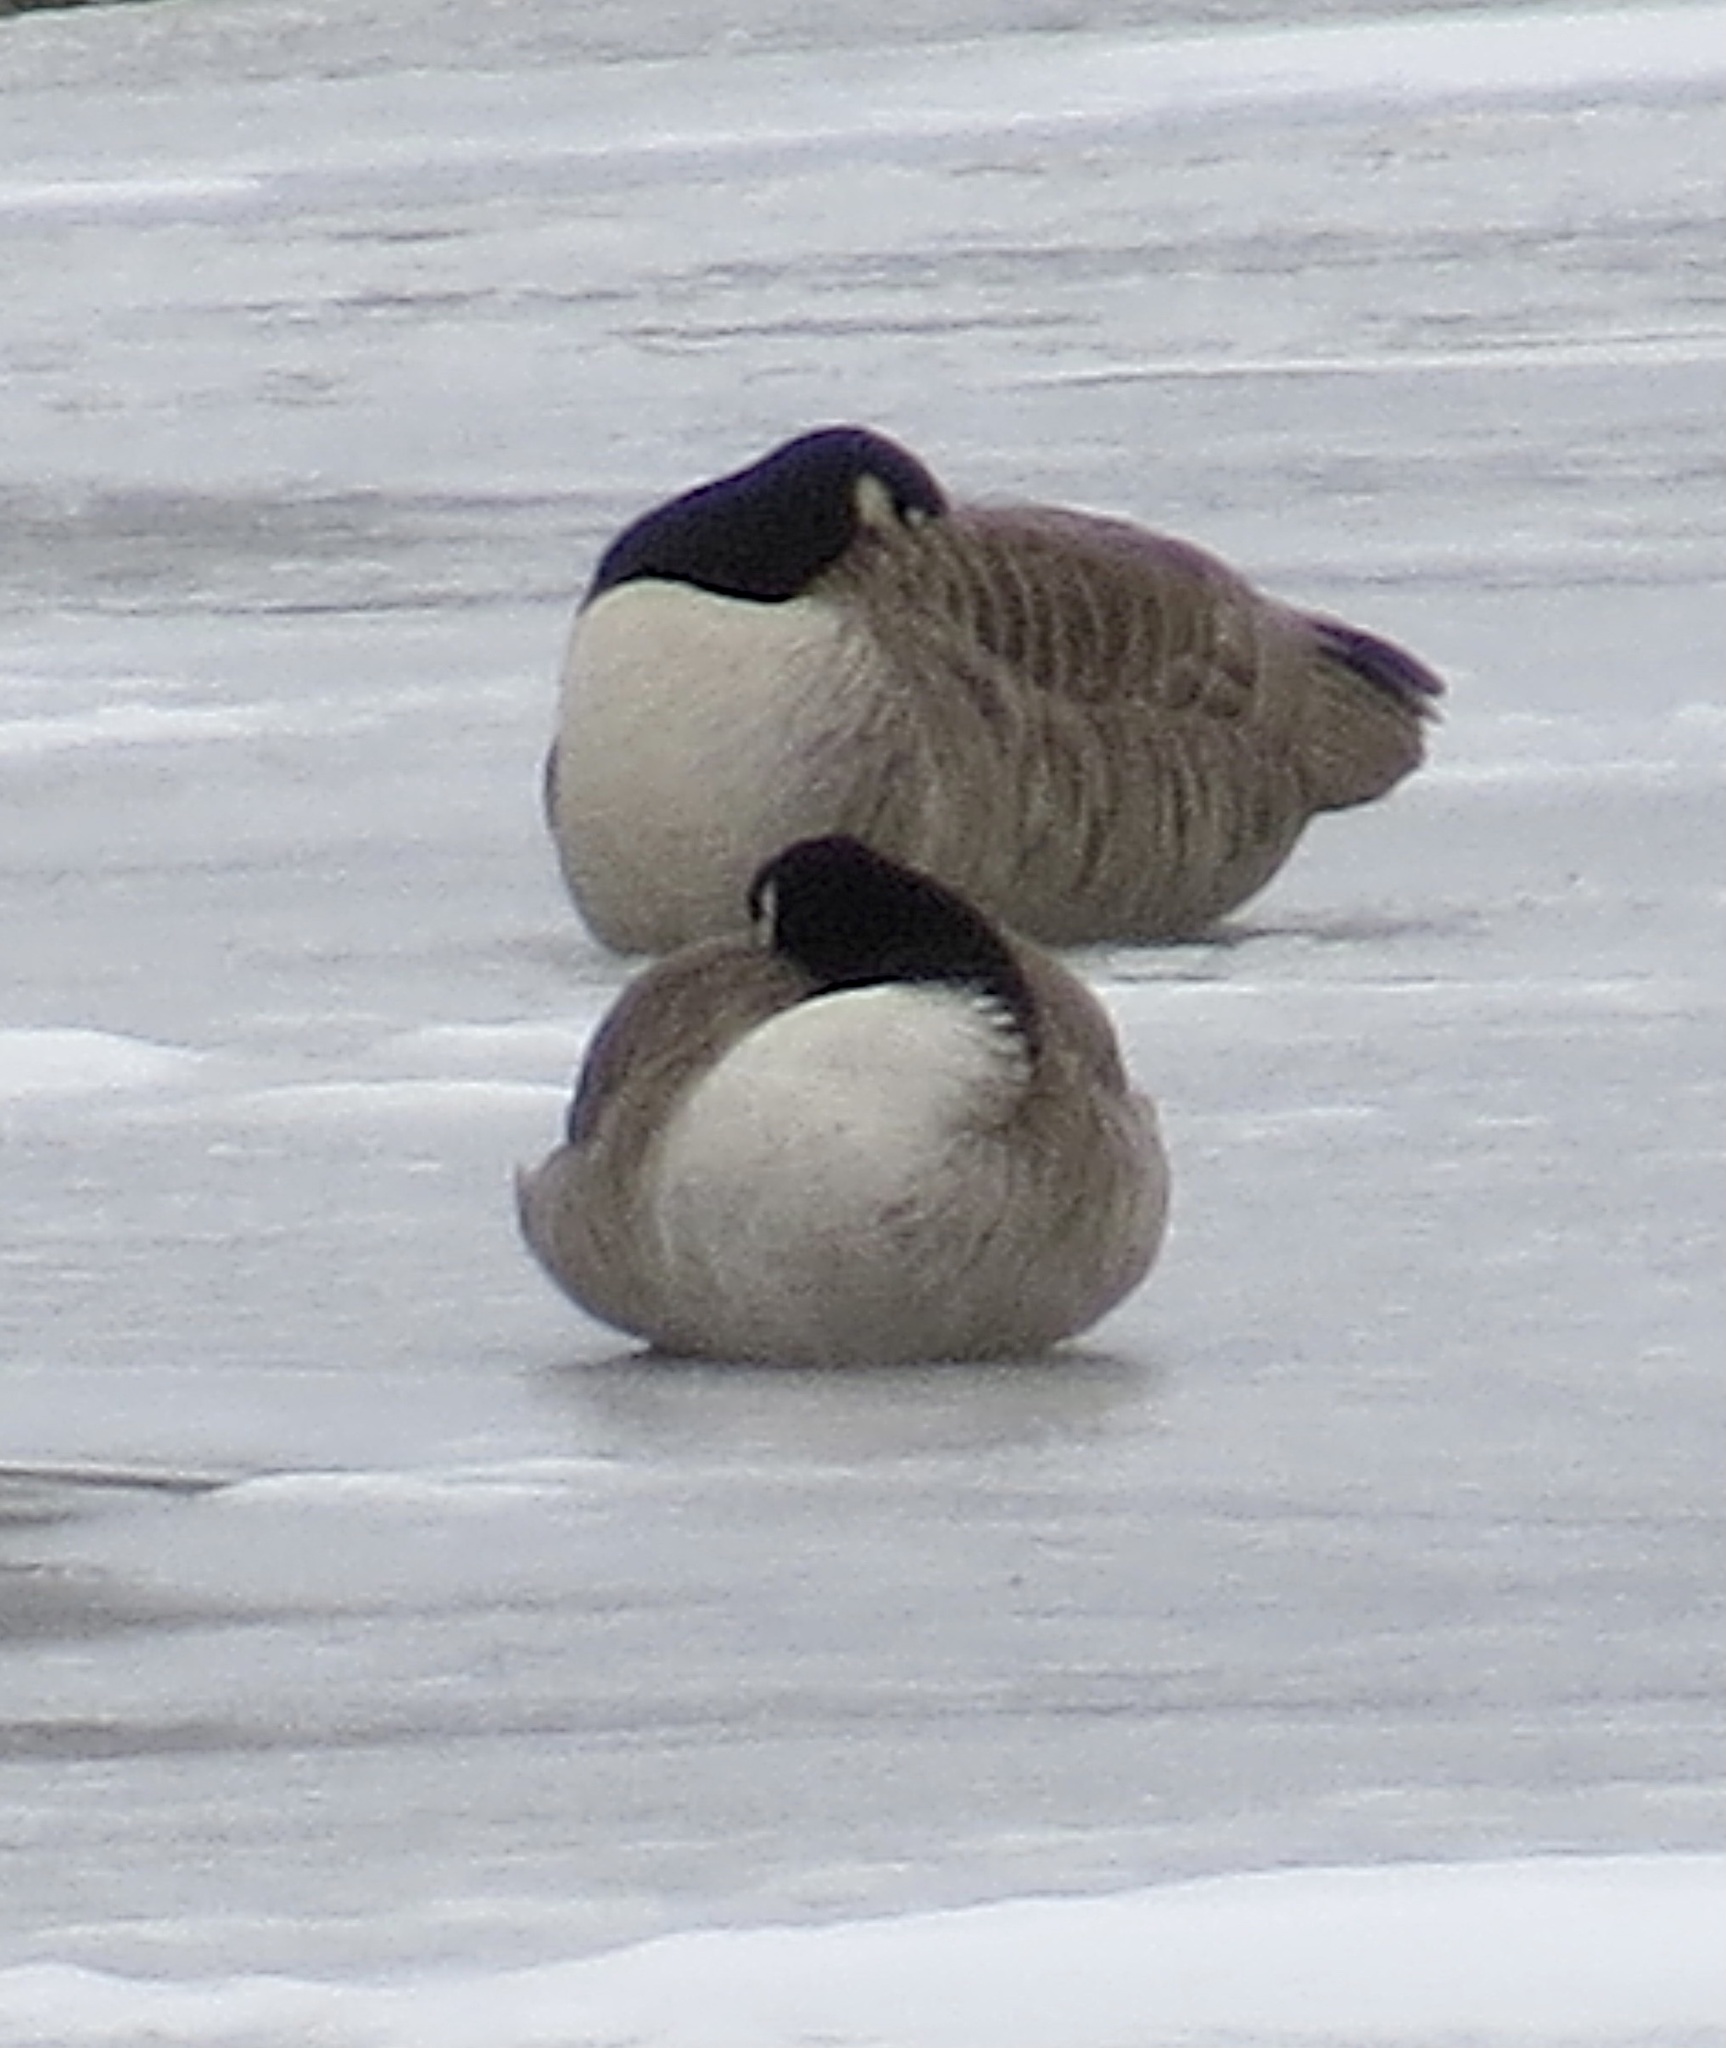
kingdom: Animalia
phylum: Chordata
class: Aves
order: Anseriformes
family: Anatidae
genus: Branta
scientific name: Branta canadensis
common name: Canada goose
